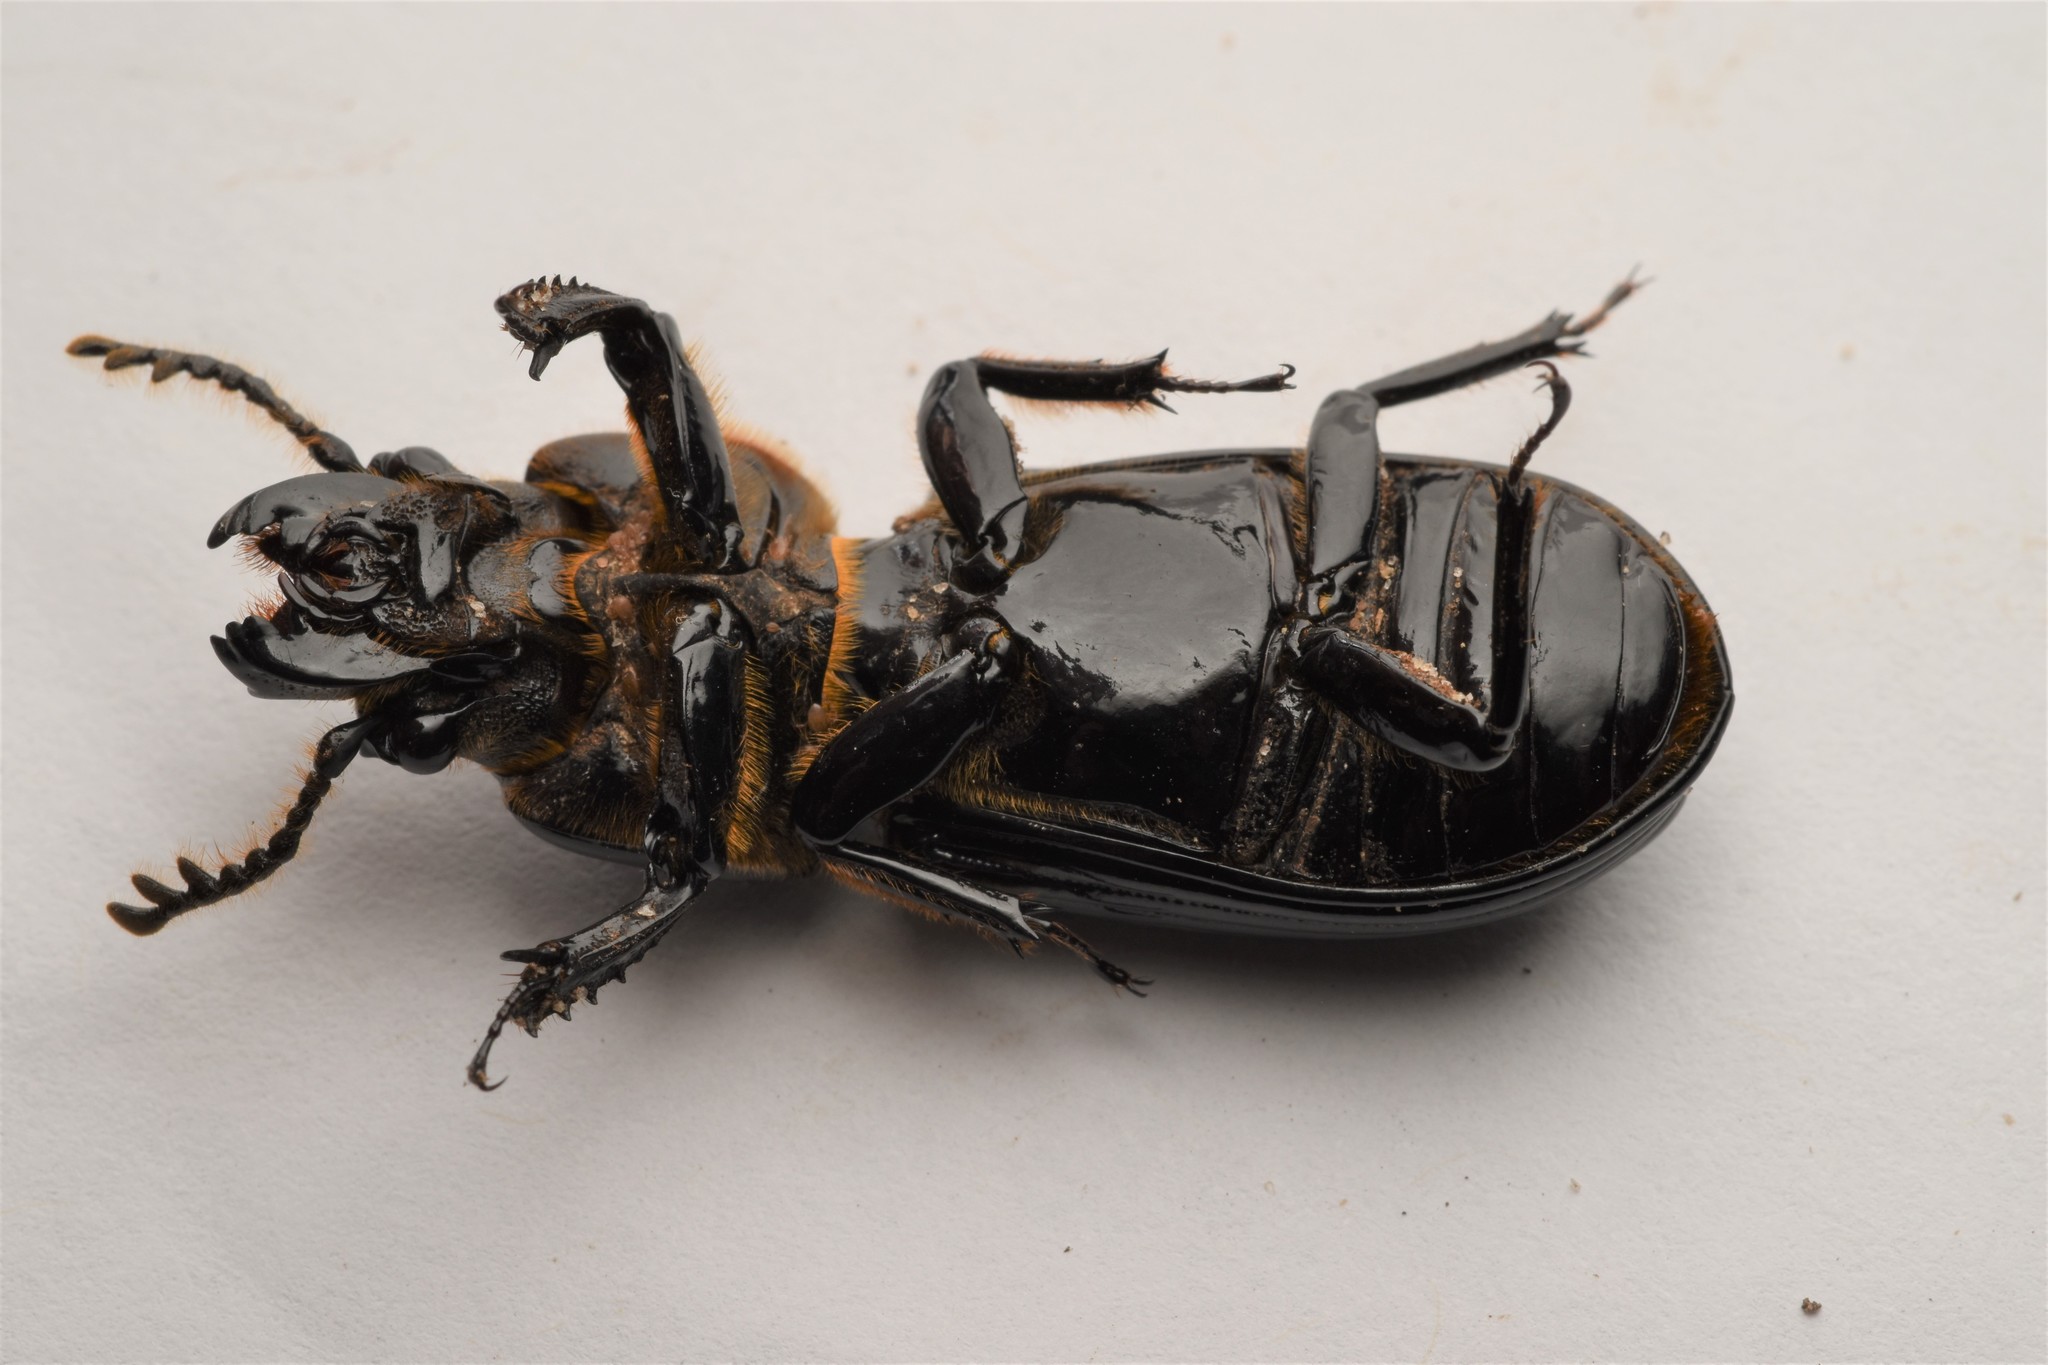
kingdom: Animalia
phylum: Arthropoda
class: Insecta
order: Coleoptera
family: Passalidae
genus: Odontotaenius
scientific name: Odontotaenius disjunctus
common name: Patent leather beetle
